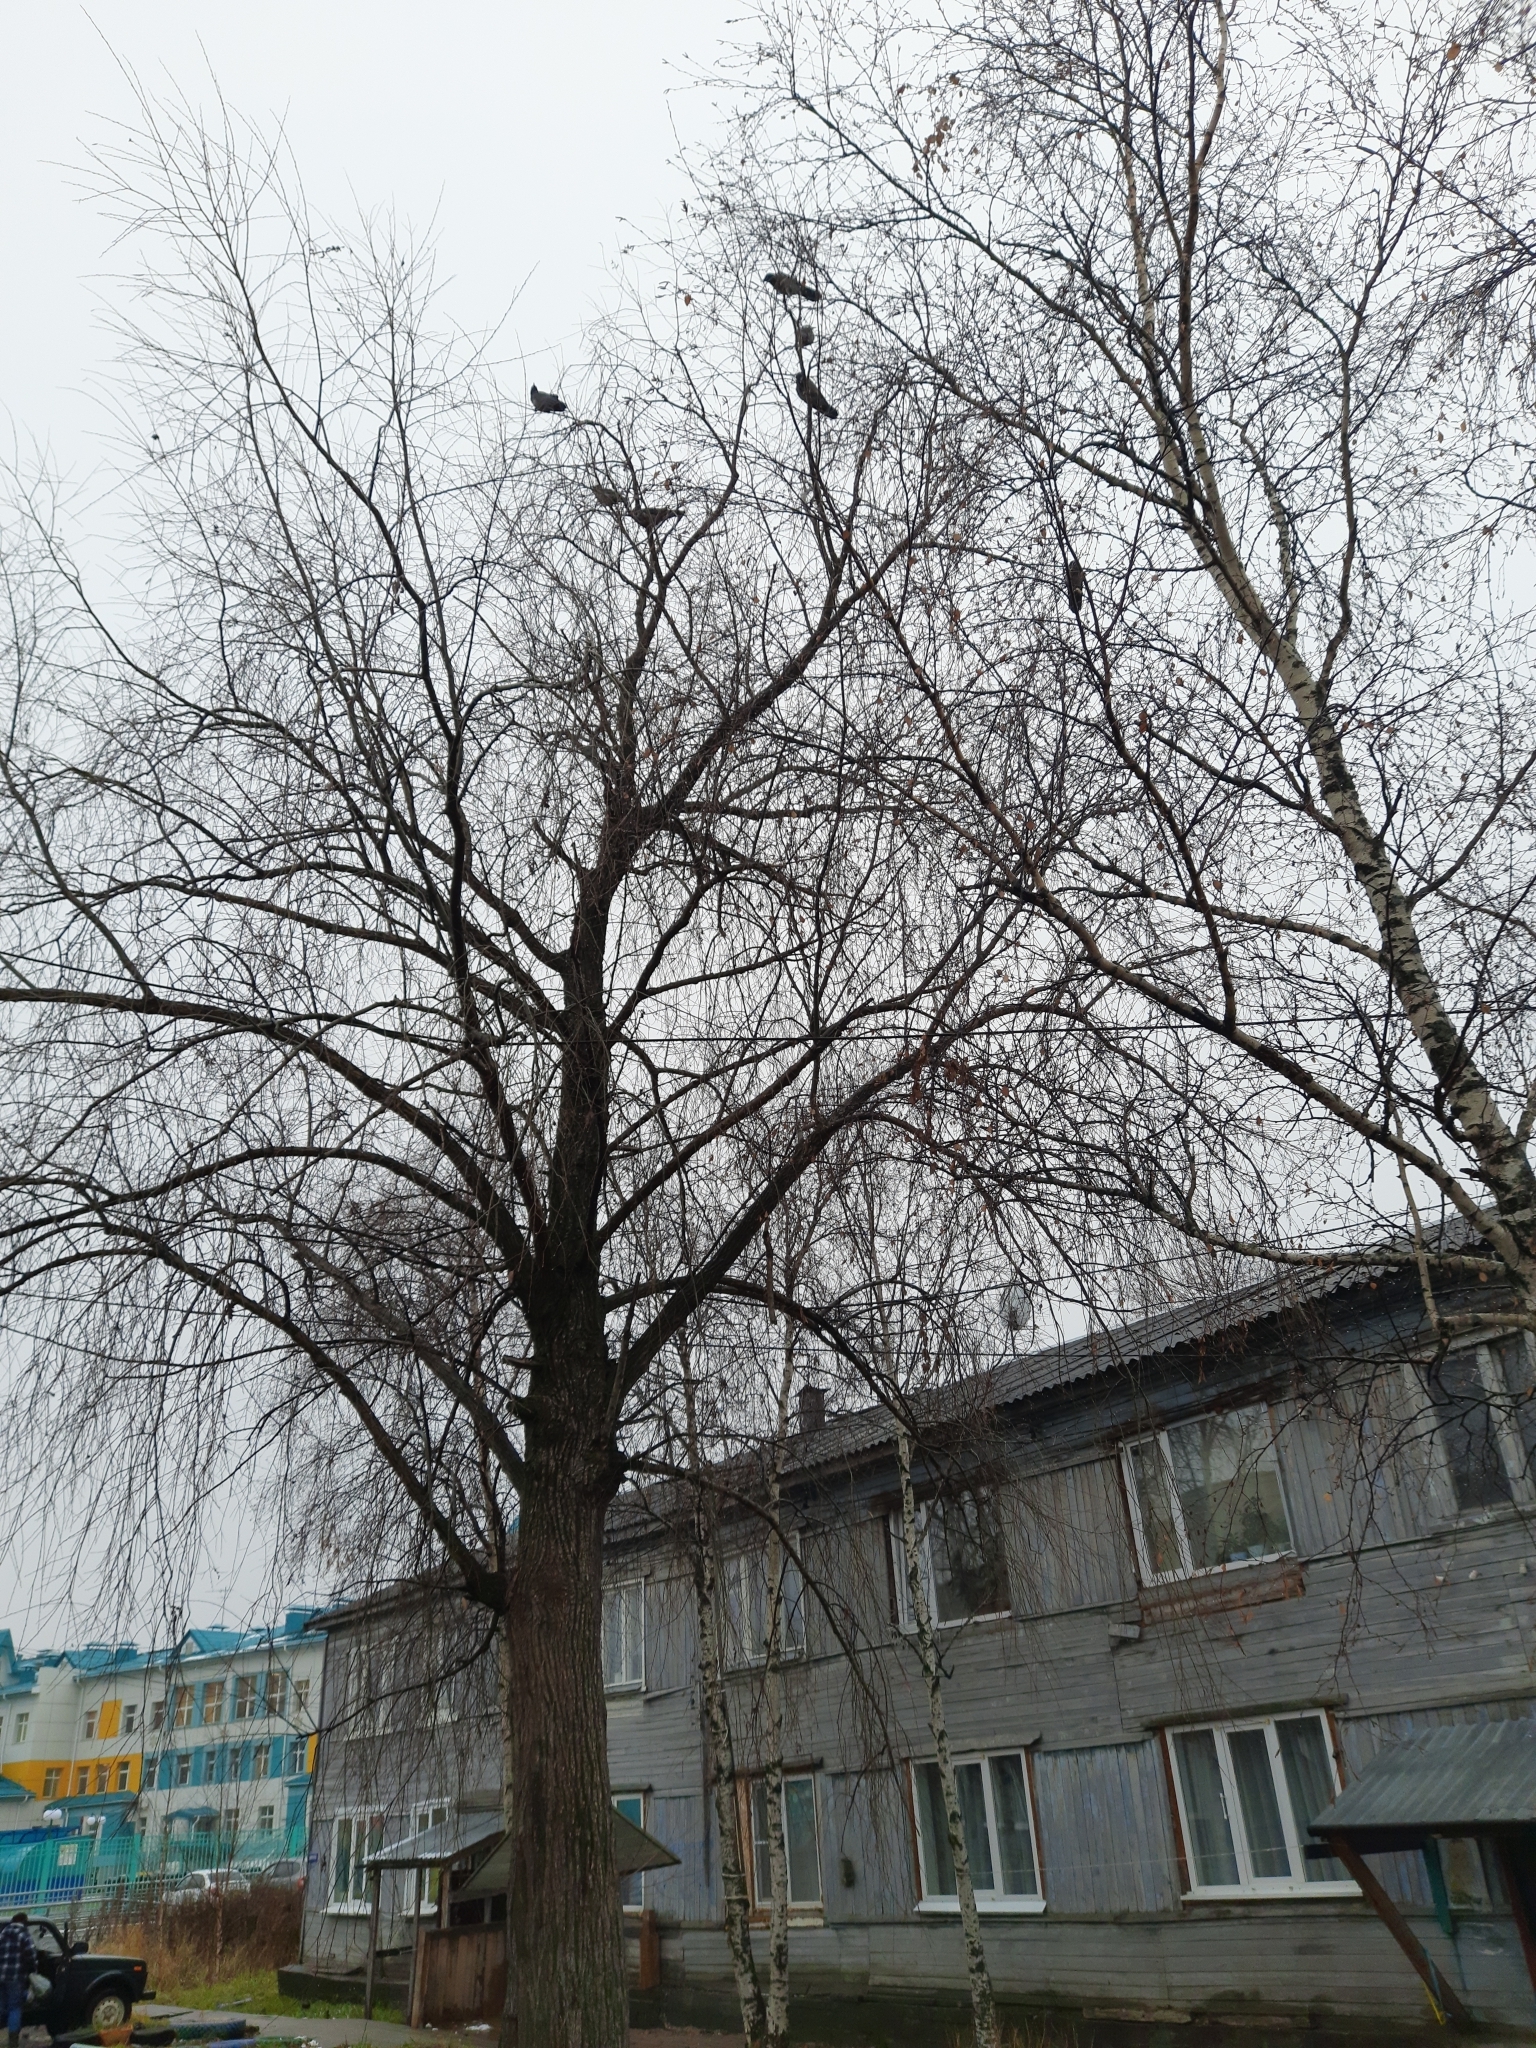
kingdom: Animalia
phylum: Chordata
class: Aves
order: Passeriformes
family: Corvidae
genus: Corvus
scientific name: Corvus cornix
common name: Hooded crow
